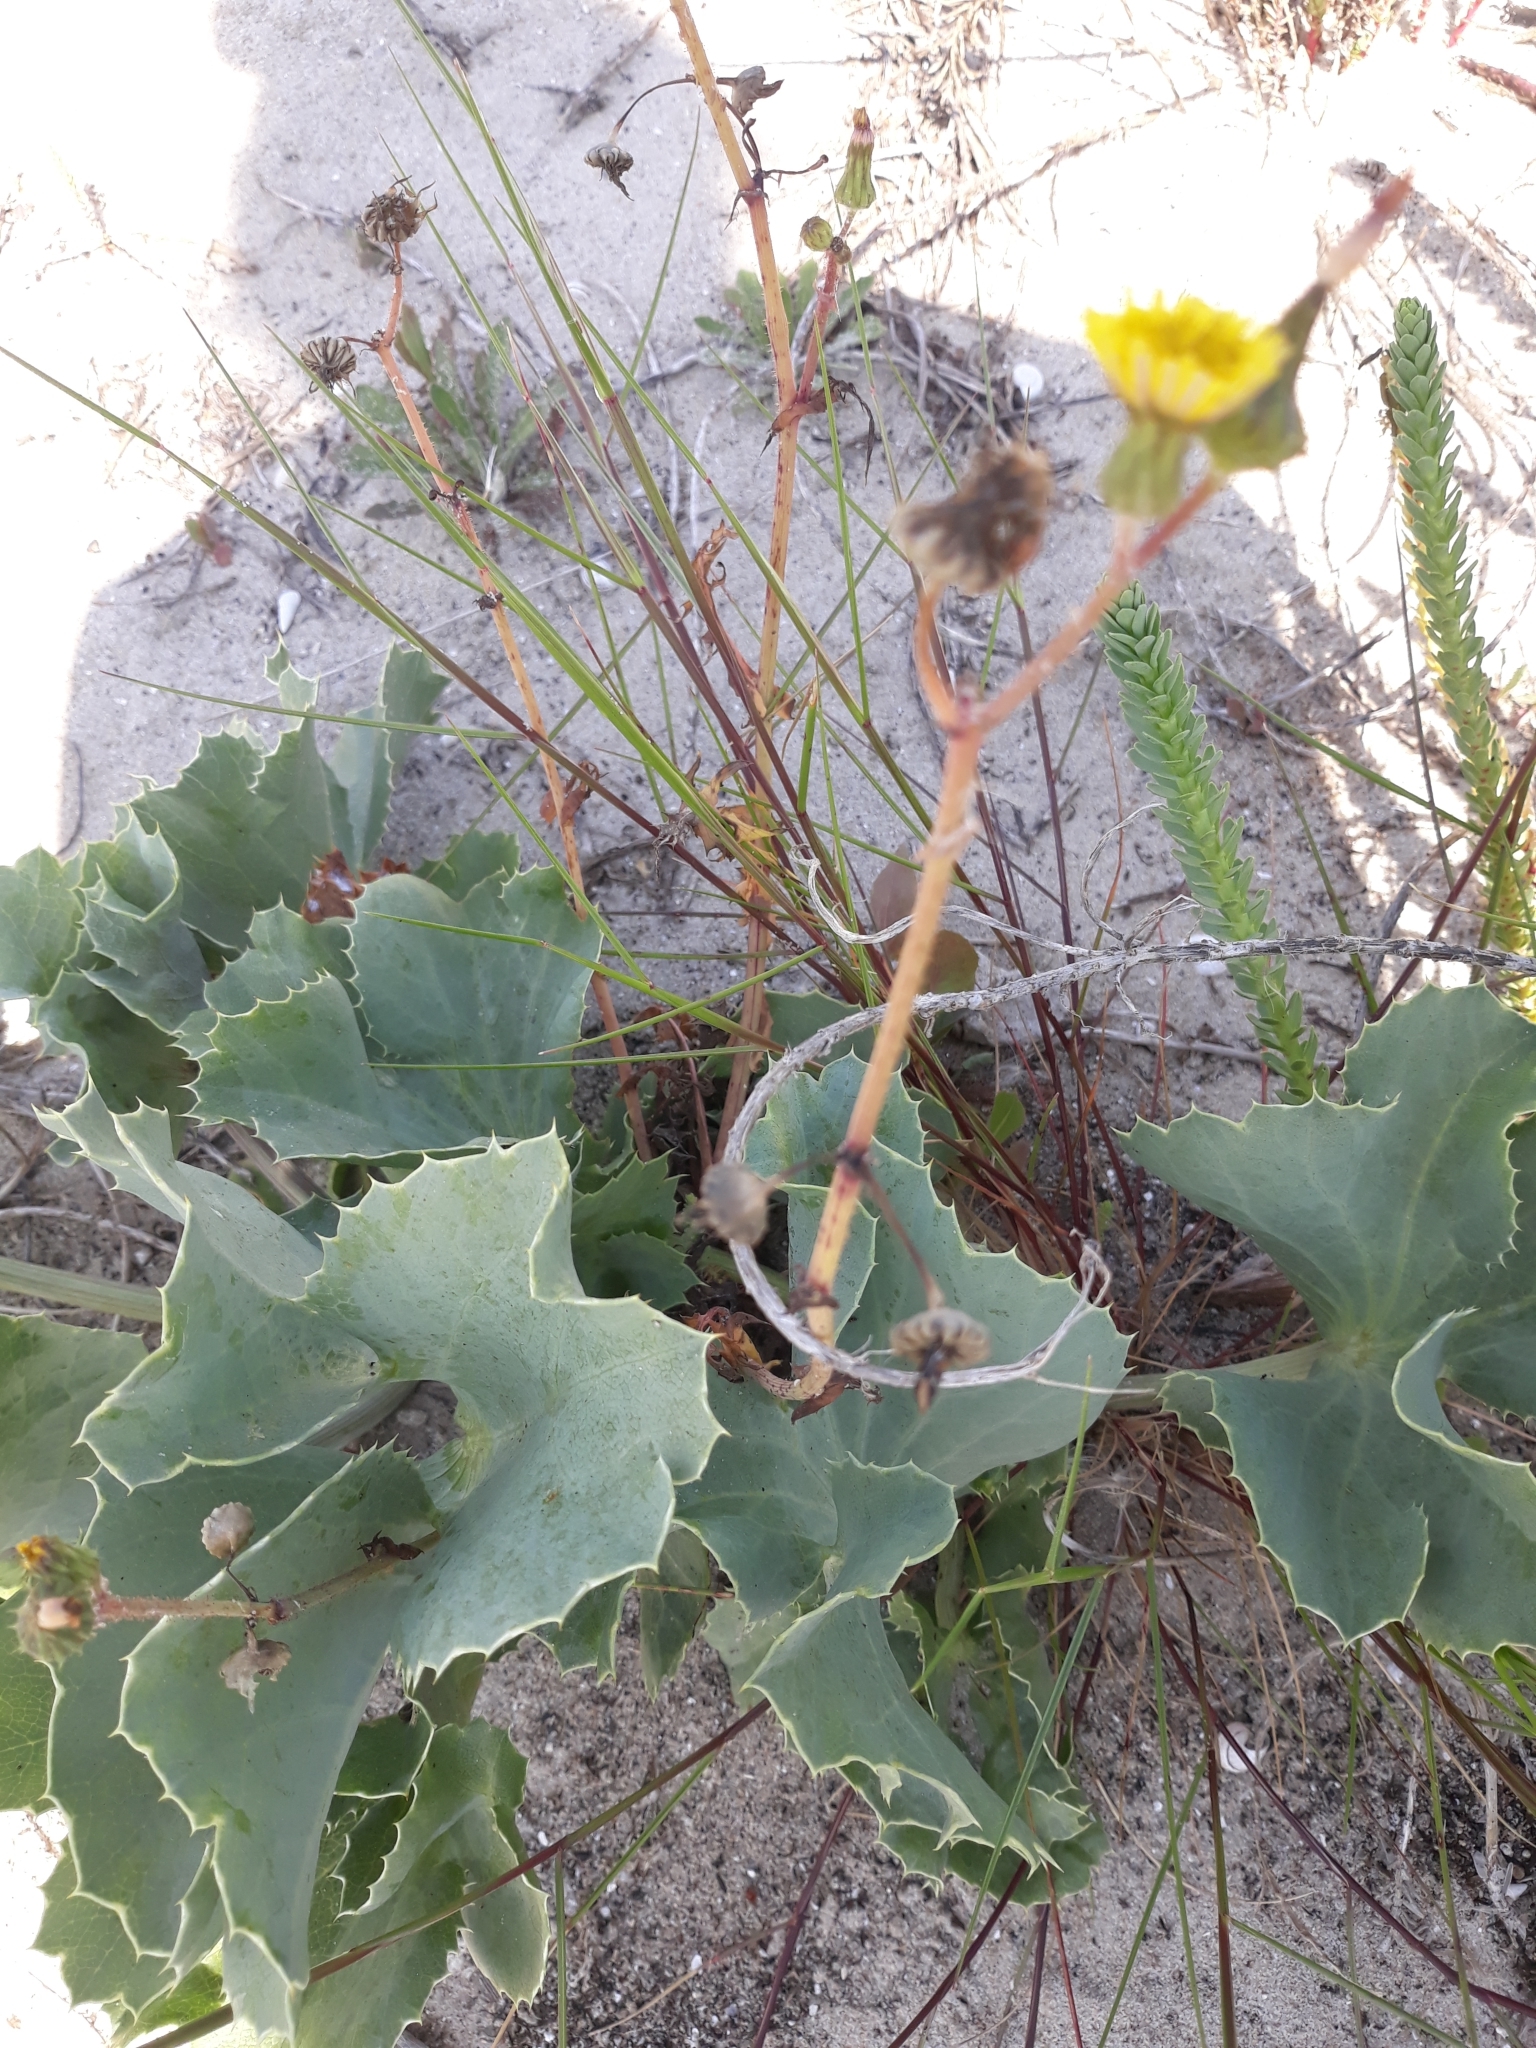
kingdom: Plantae
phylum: Tracheophyta
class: Magnoliopsida
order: Apiales
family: Apiaceae
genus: Eryngium
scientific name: Eryngium maritimum
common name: Sea-holly
